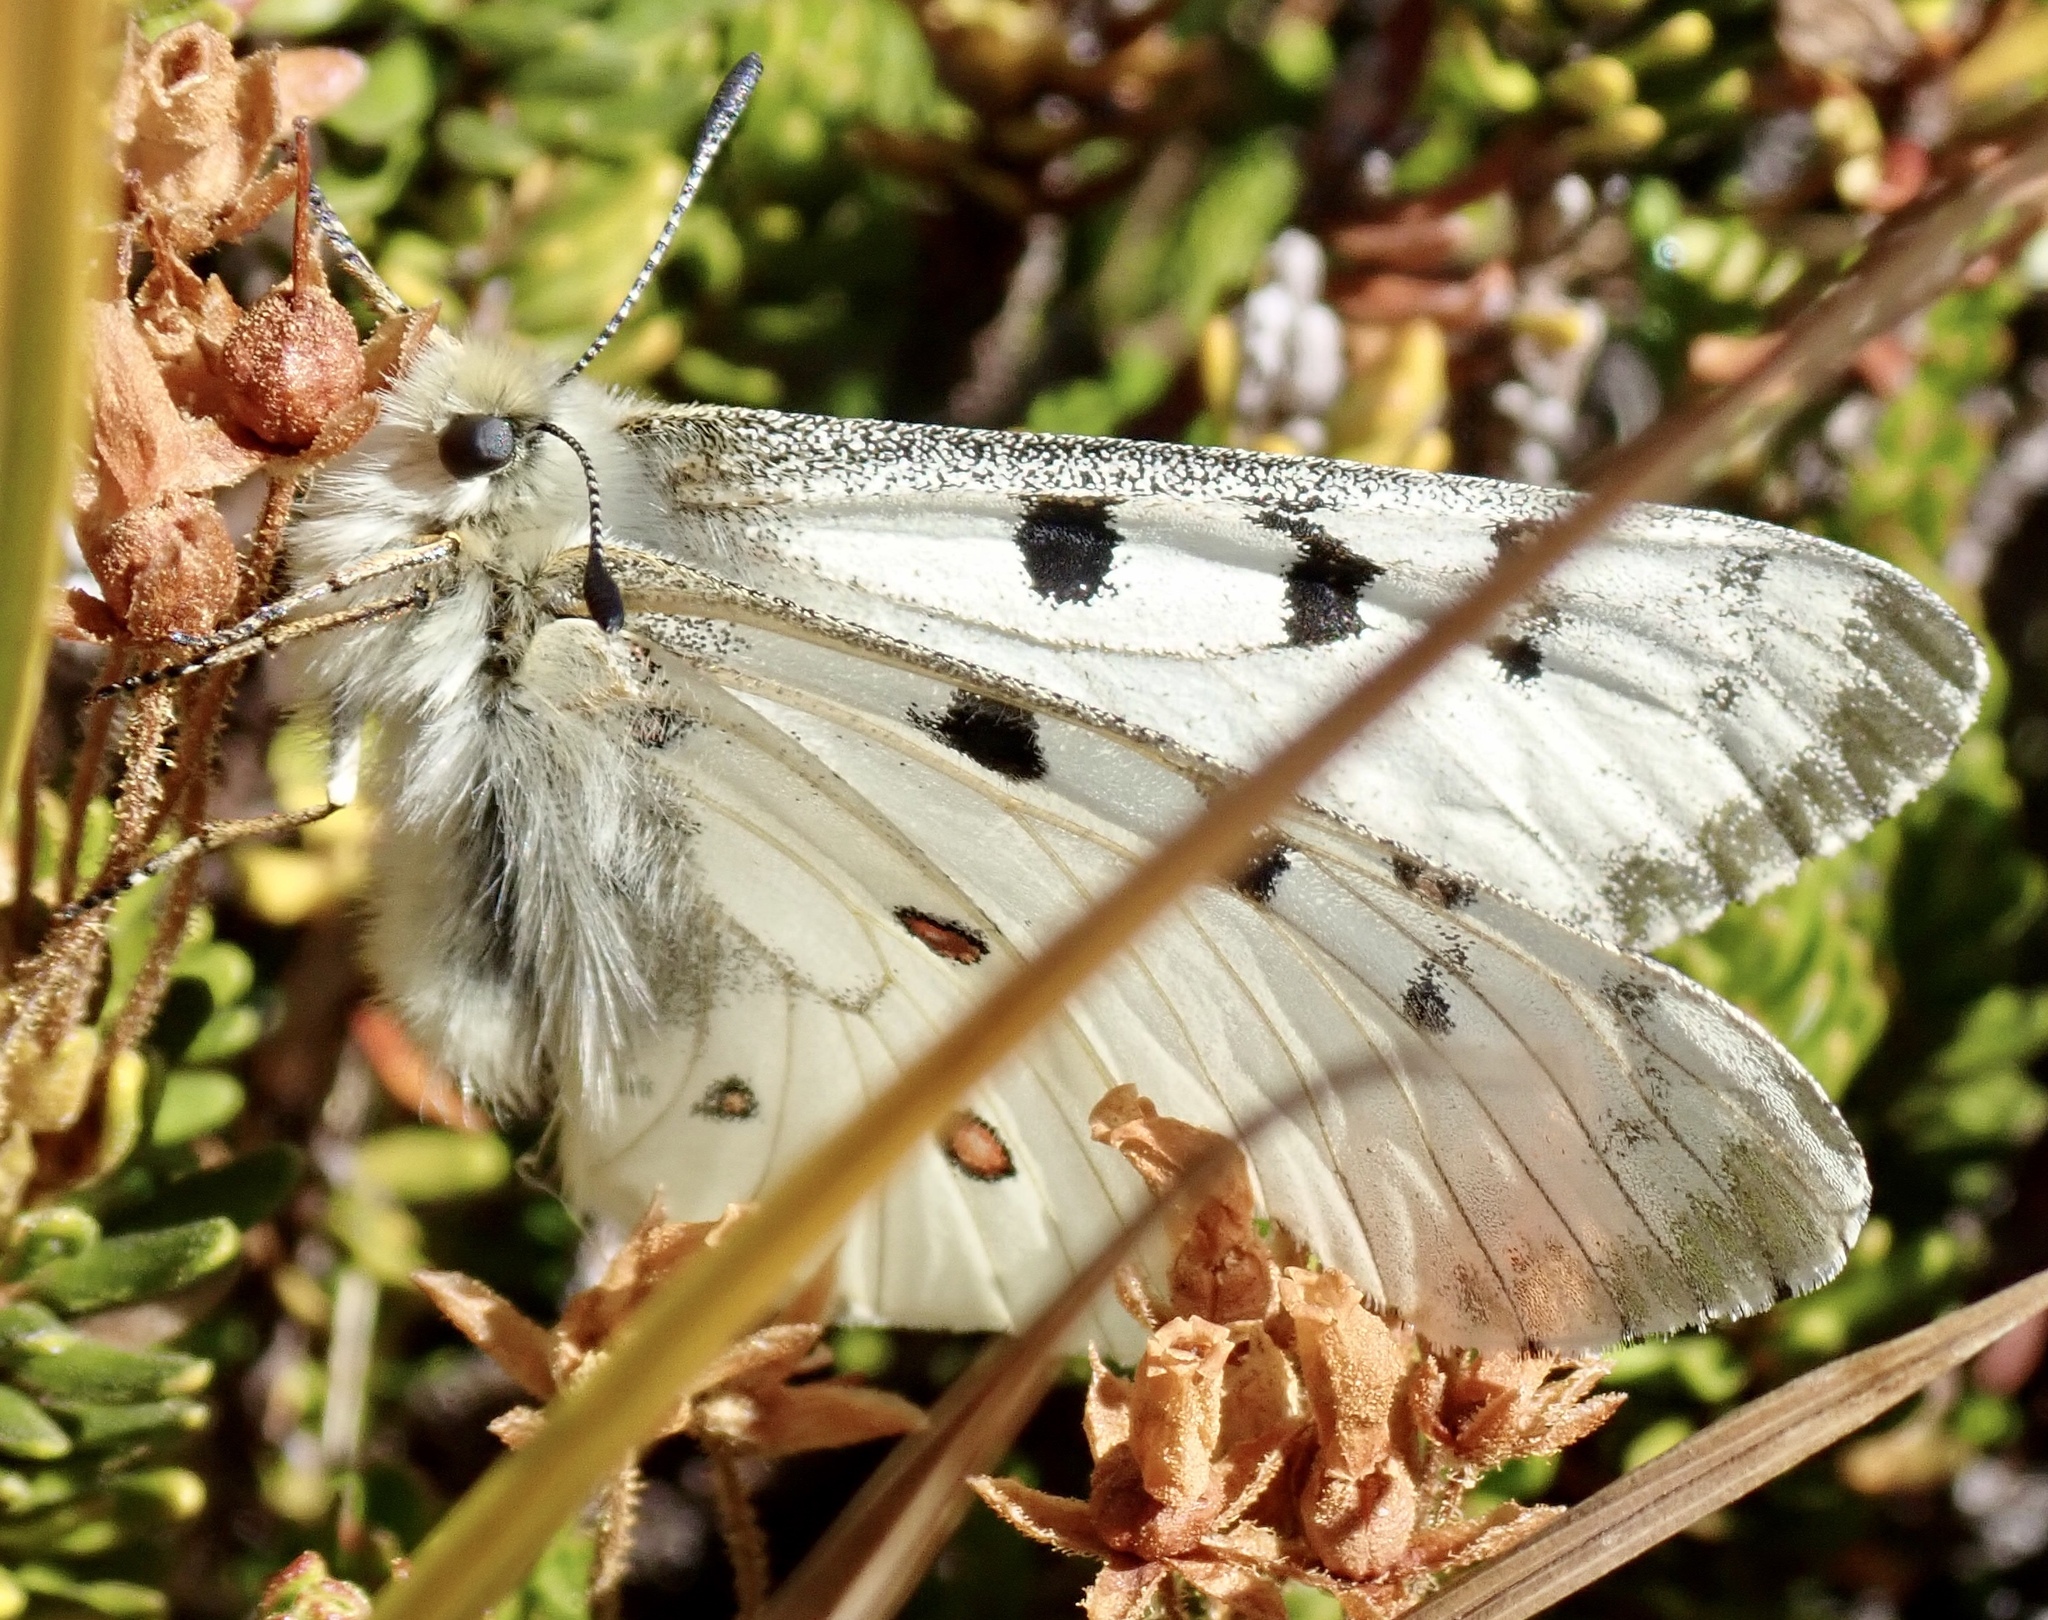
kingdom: Animalia
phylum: Arthropoda
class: Insecta
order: Lepidoptera
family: Papilionidae
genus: Parnassius
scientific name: Parnassius smintheus
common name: Mountain parnassian
